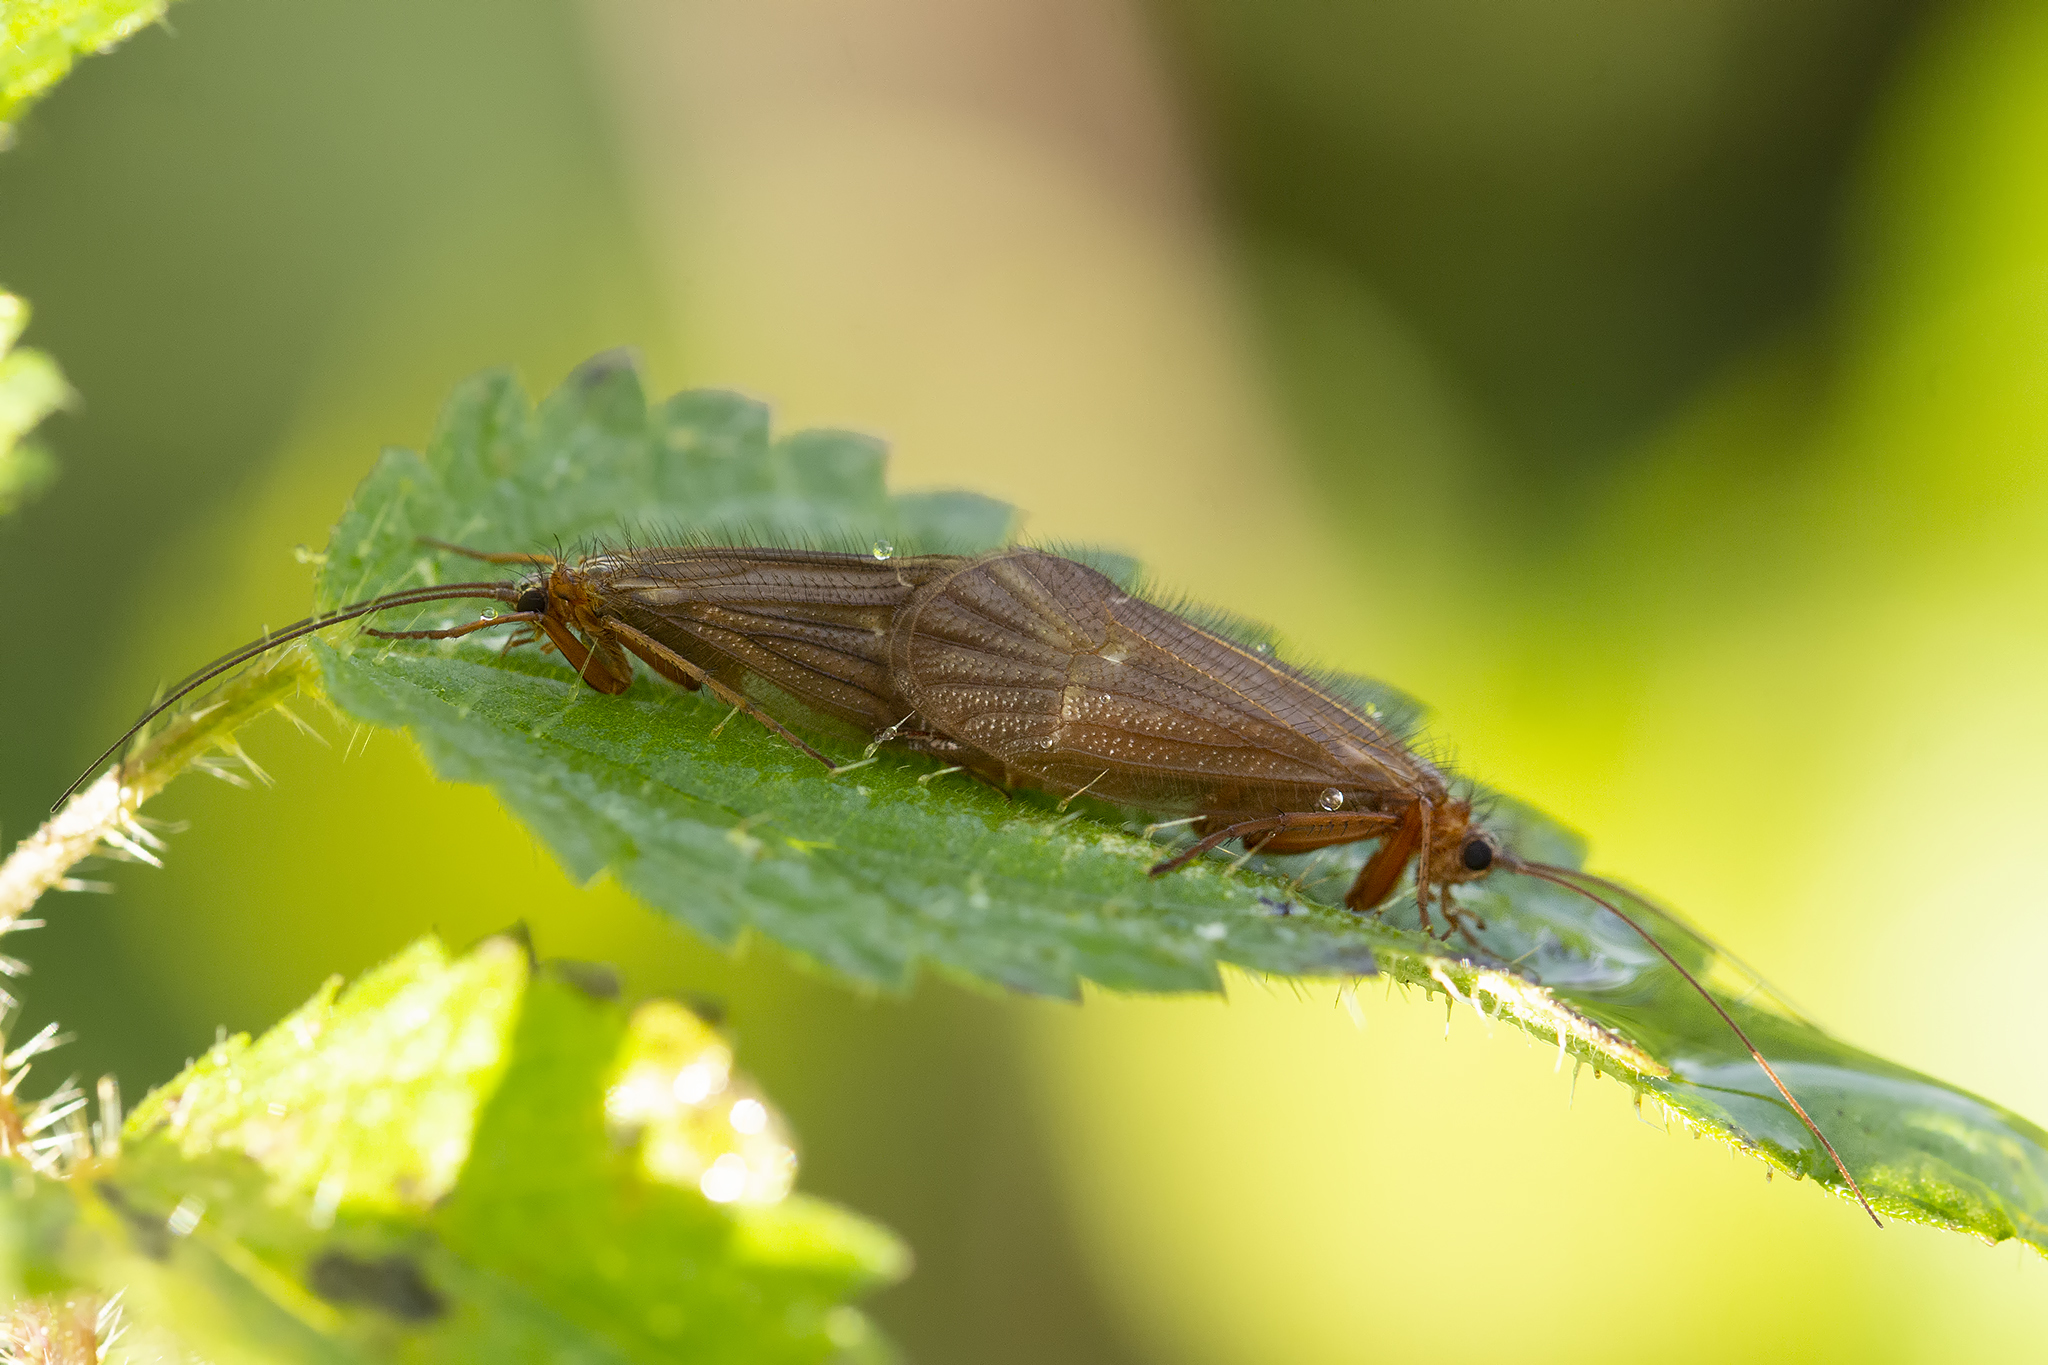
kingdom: Animalia
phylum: Arthropoda
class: Insecta
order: Trichoptera
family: Limnephilidae
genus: Chaetopteryx
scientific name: Chaetopteryx villosa
